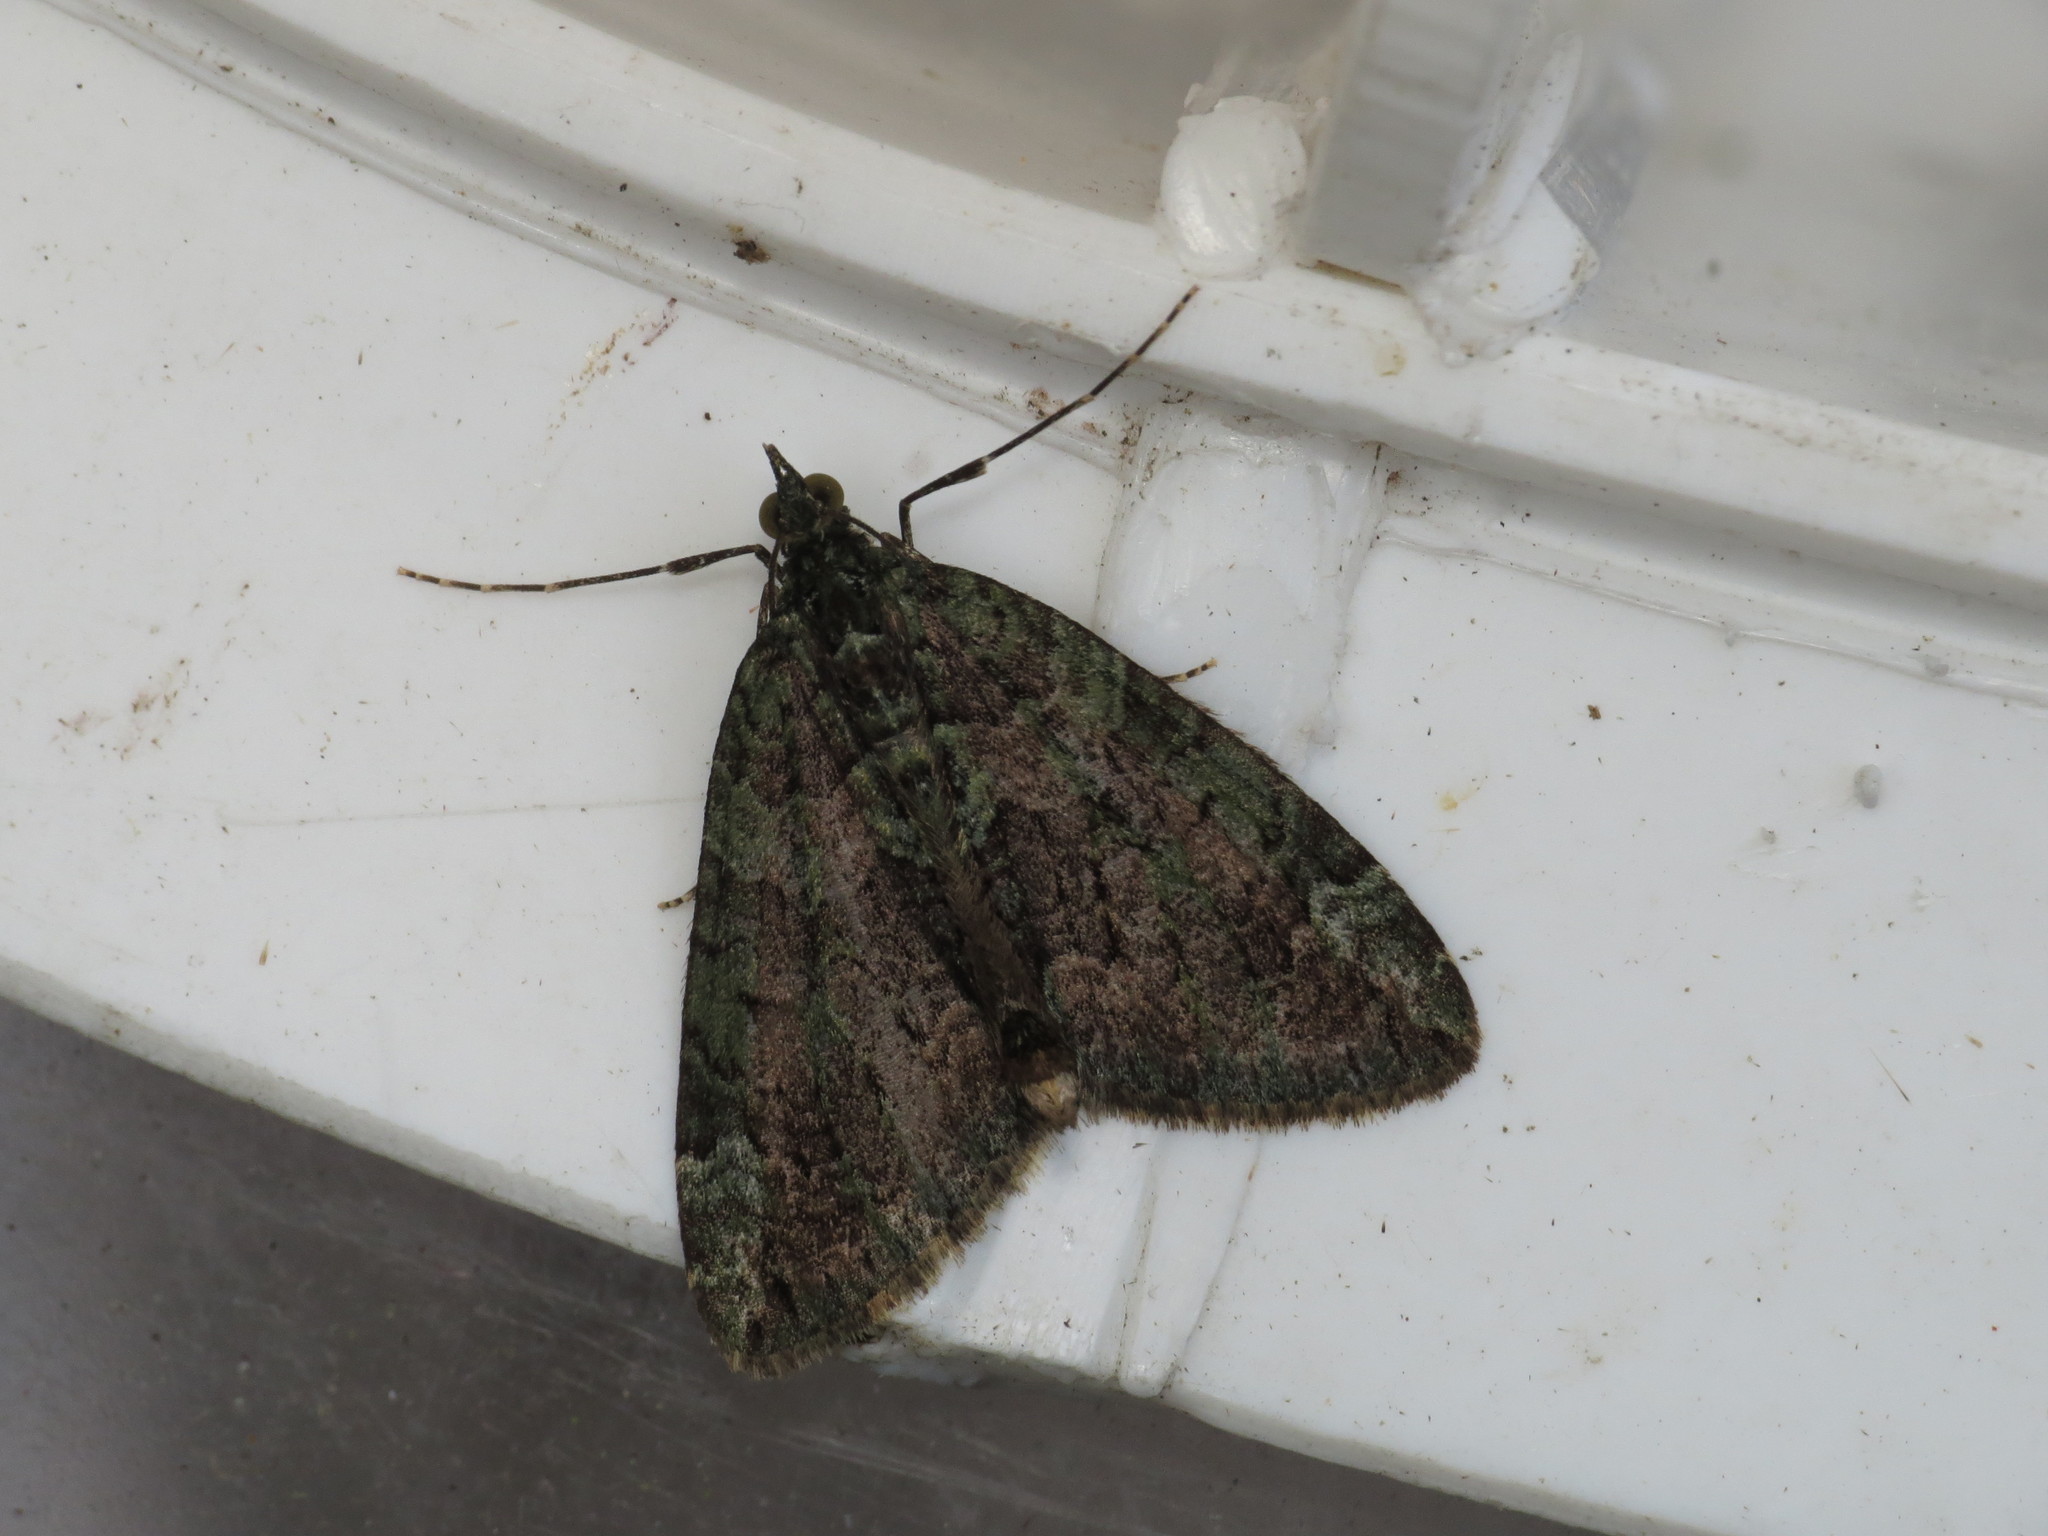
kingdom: Animalia
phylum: Arthropoda
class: Insecta
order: Lepidoptera
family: Geometridae
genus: Chloroclysta
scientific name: Chloroclysta siterata
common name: Red-green carpet
